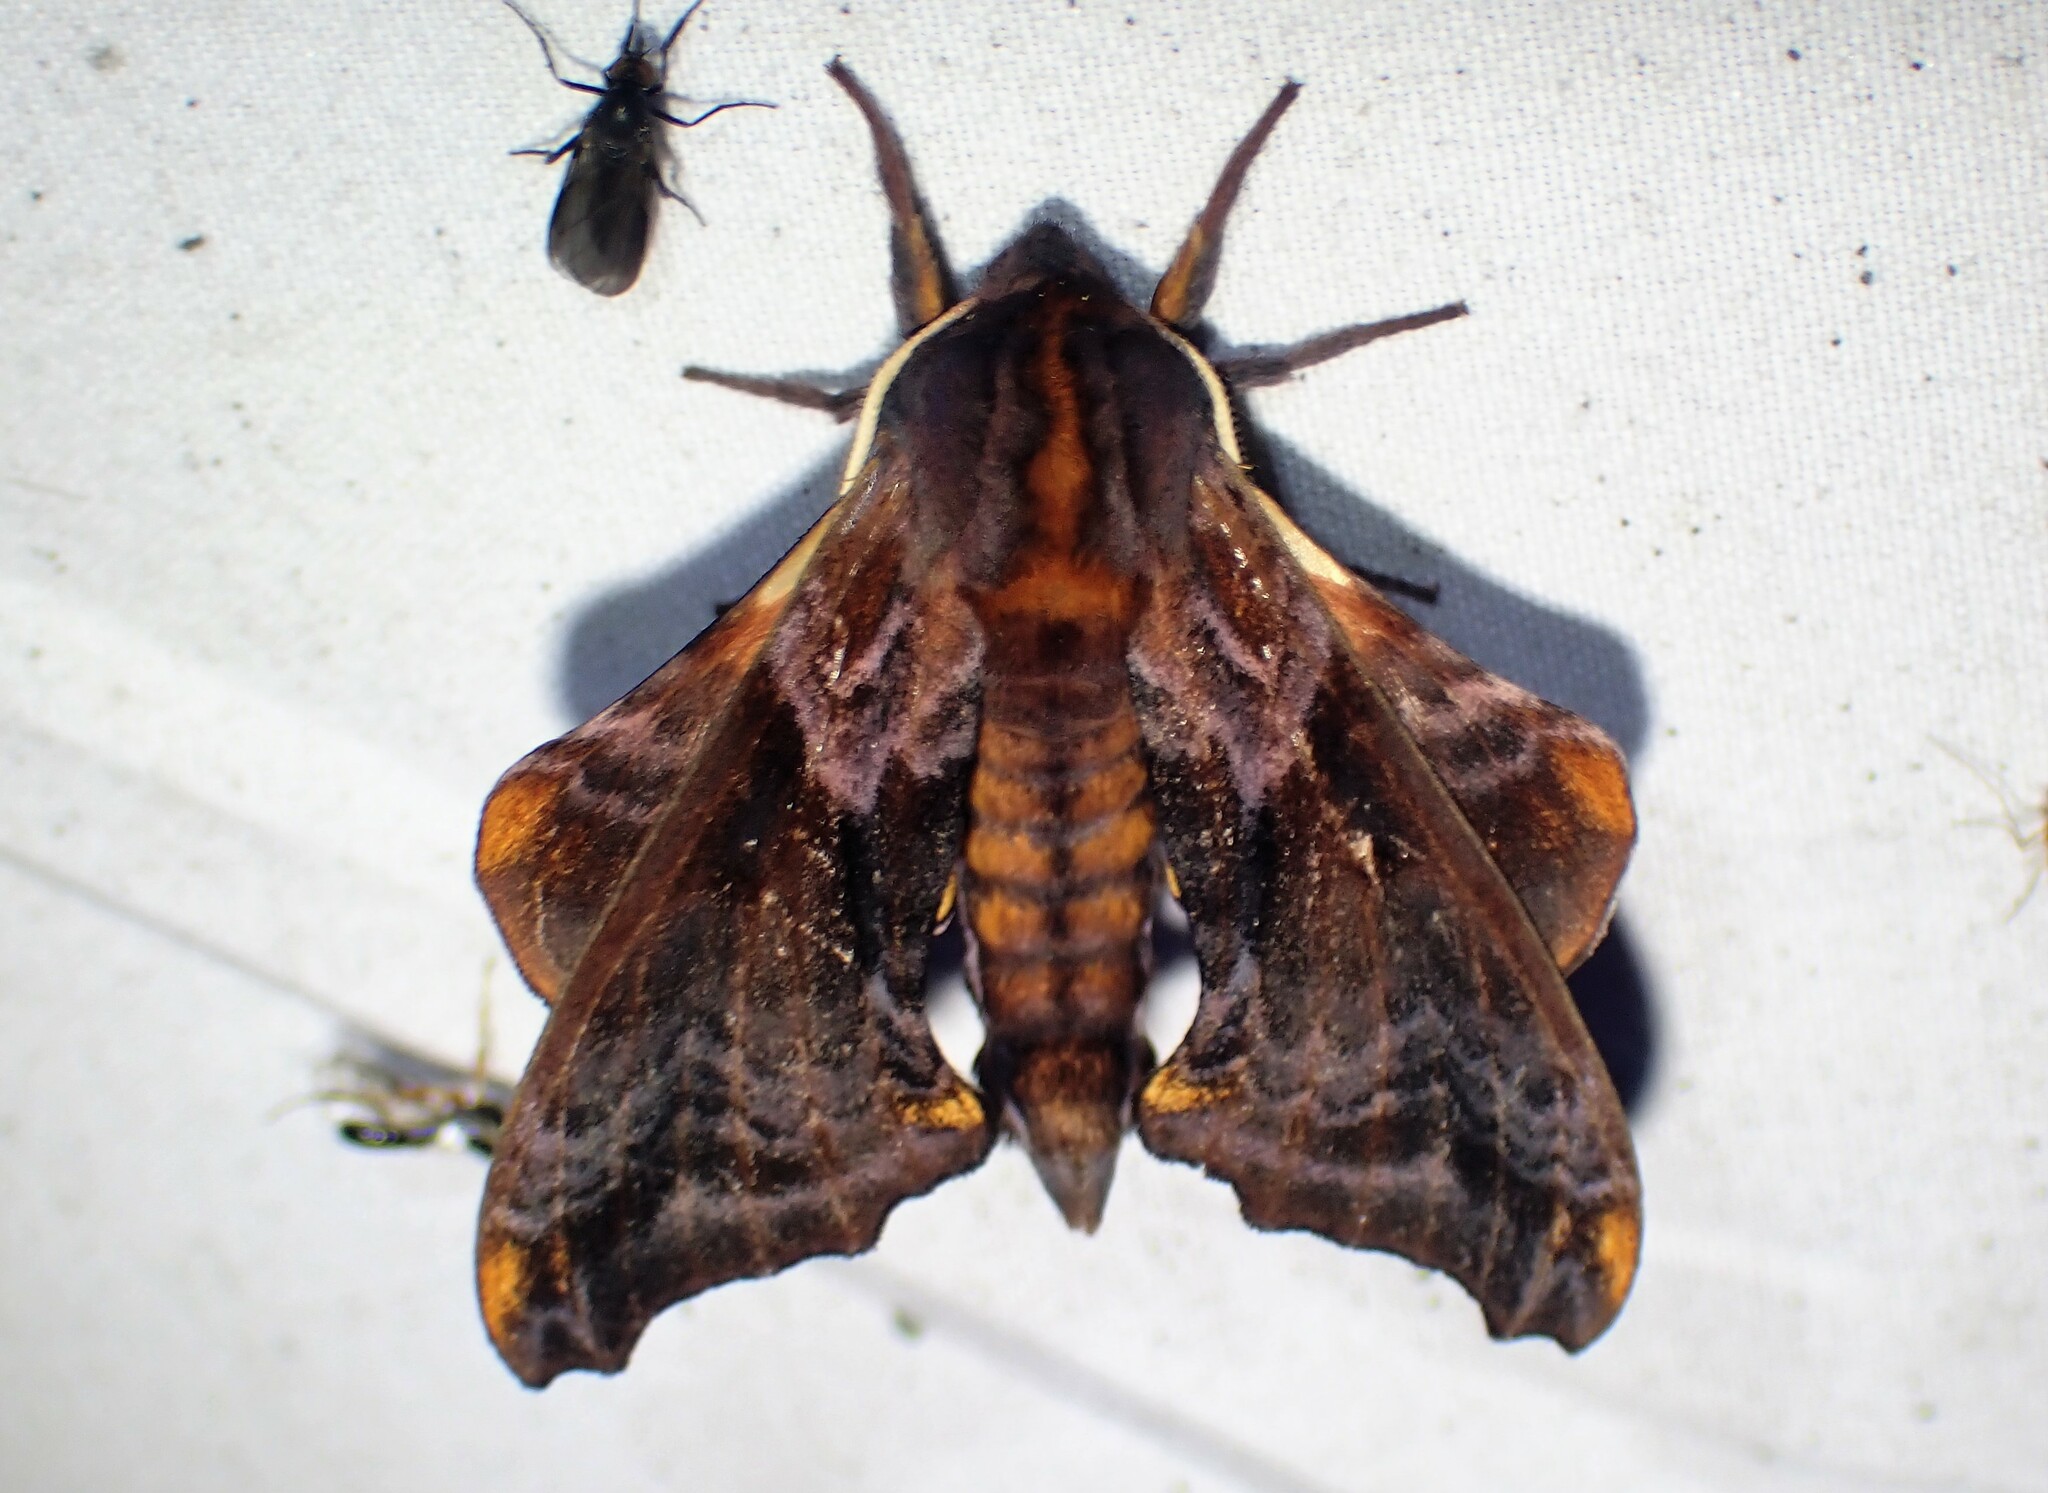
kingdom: Animalia
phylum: Arthropoda
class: Insecta
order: Lepidoptera
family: Sphingidae
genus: Paonias
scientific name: Paonias myops
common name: Small-eyed sphinx
